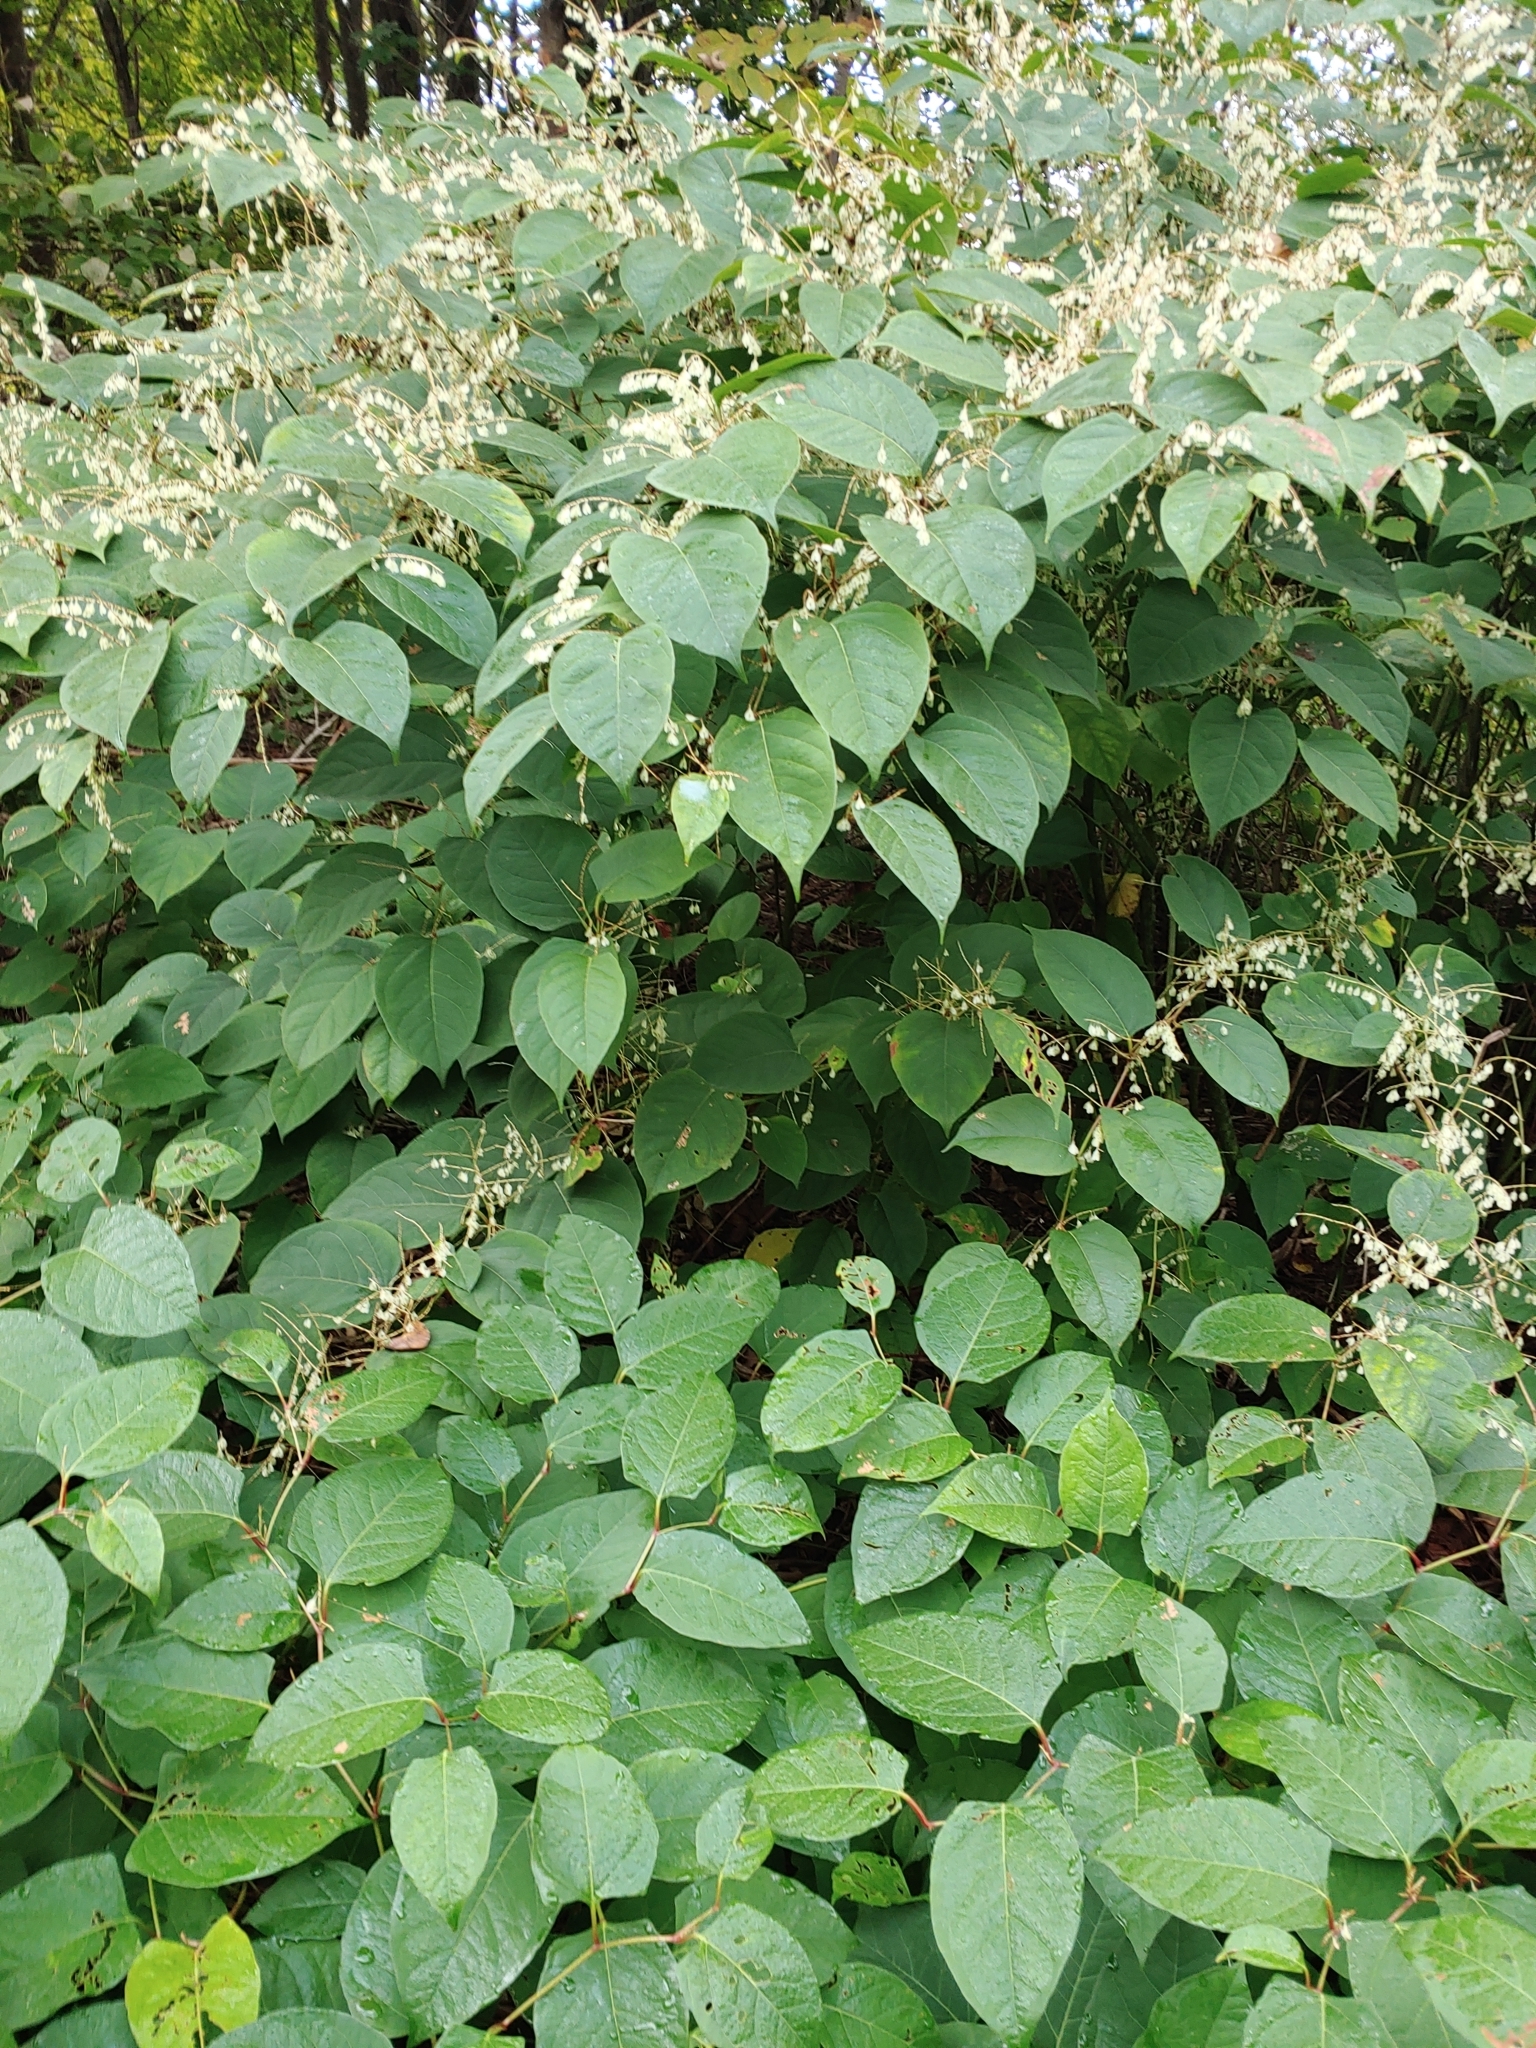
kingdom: Plantae
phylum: Tracheophyta
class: Magnoliopsida
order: Caryophyllales
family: Polygonaceae
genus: Reynoutria
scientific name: Reynoutria japonica
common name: Japanese knotweed
